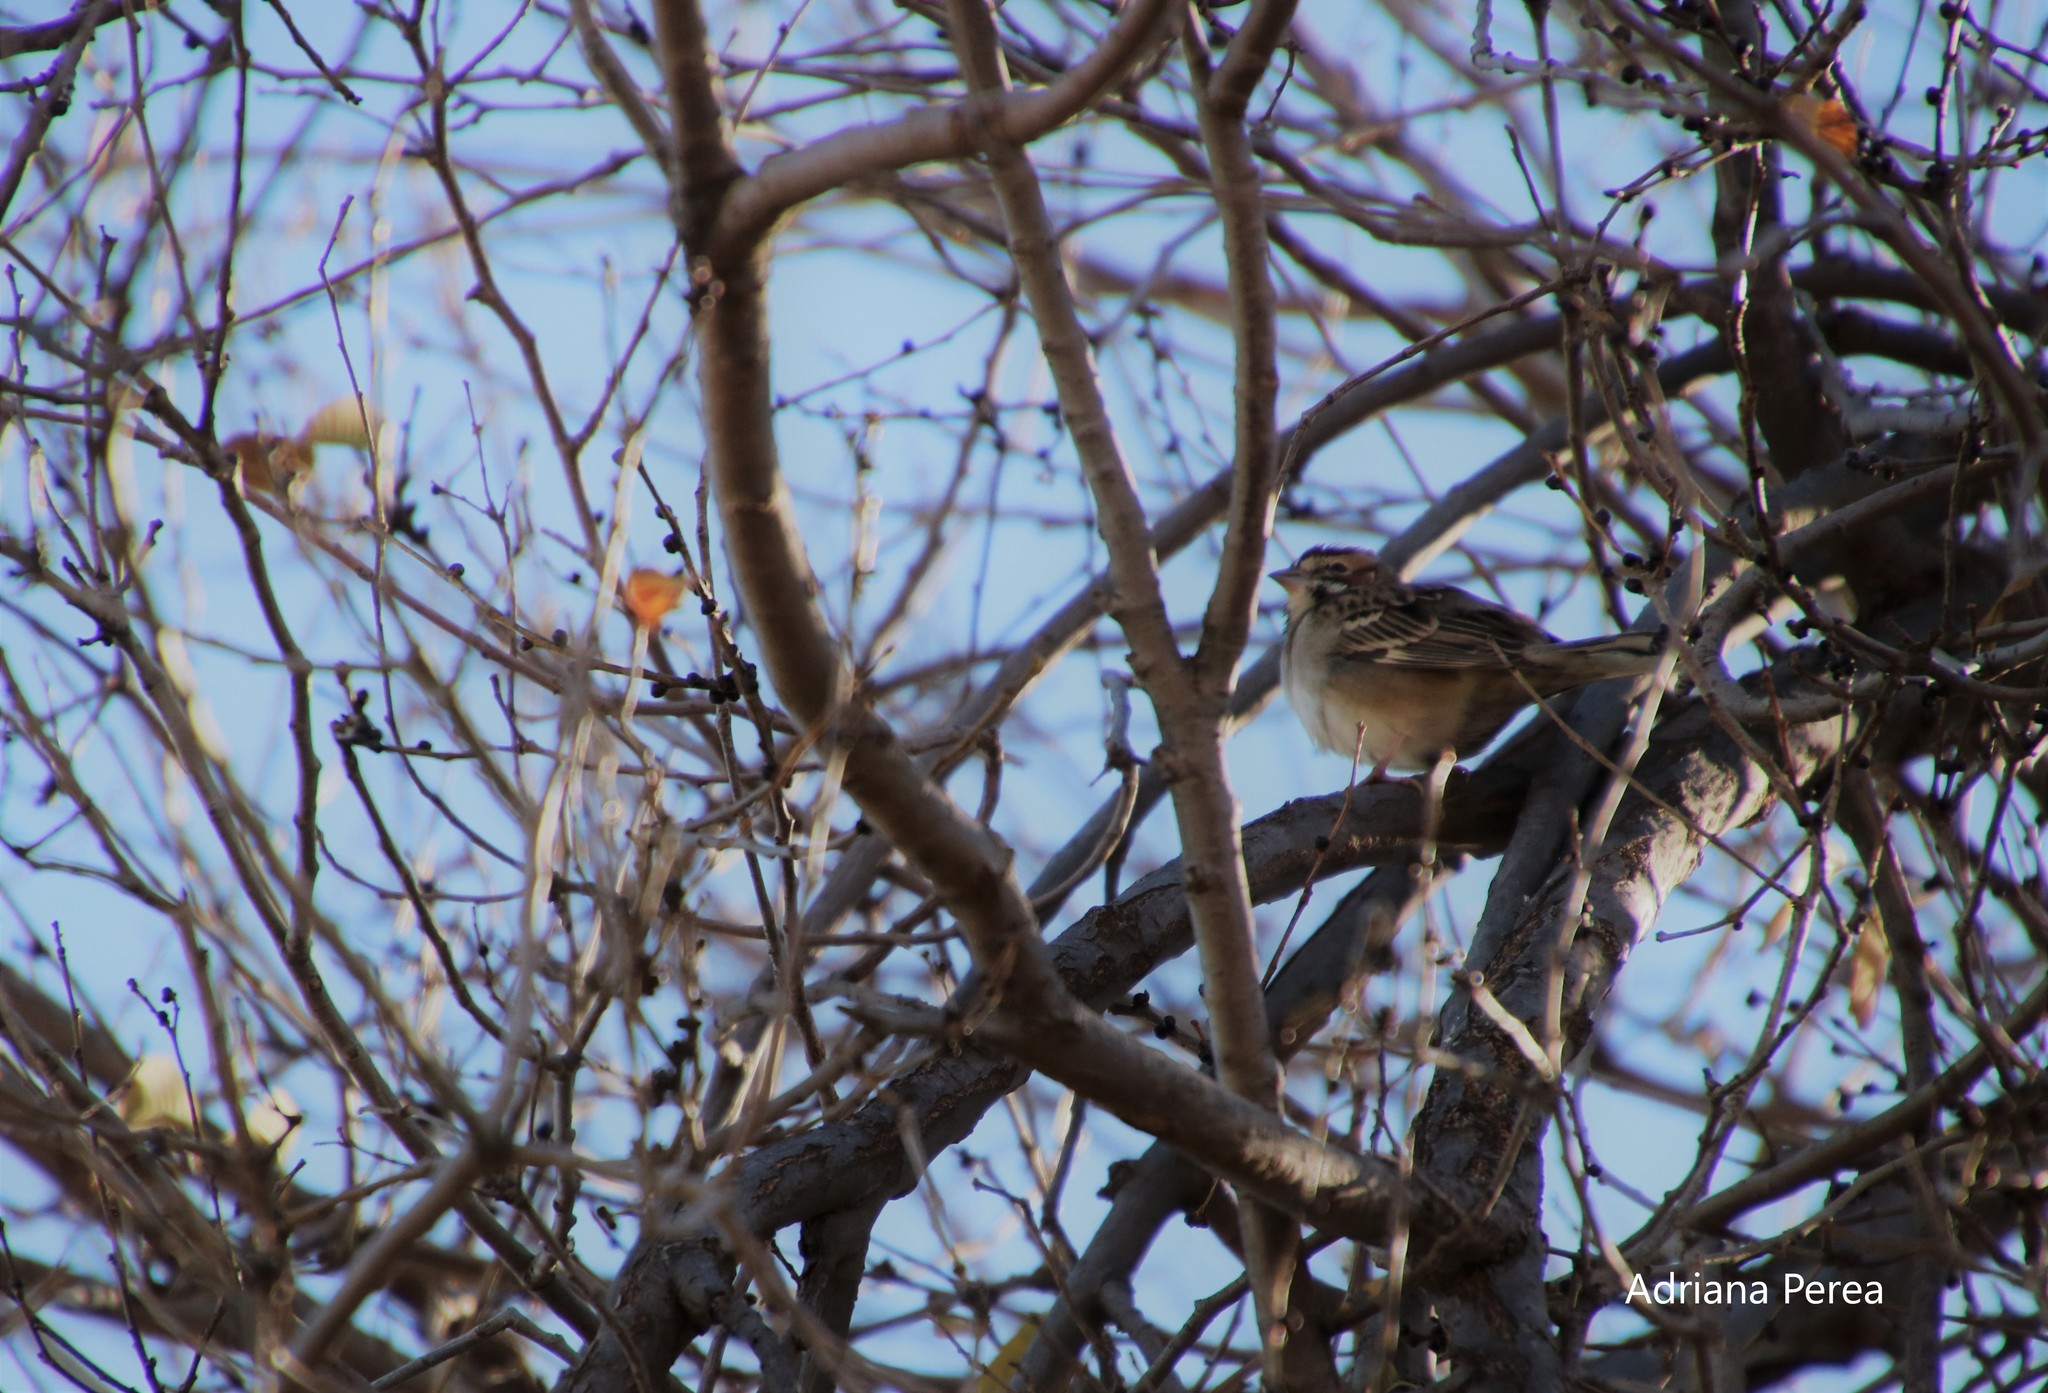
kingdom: Animalia
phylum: Chordata
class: Aves
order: Passeriformes
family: Passerellidae
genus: Chondestes
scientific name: Chondestes grammacus
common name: Lark sparrow
